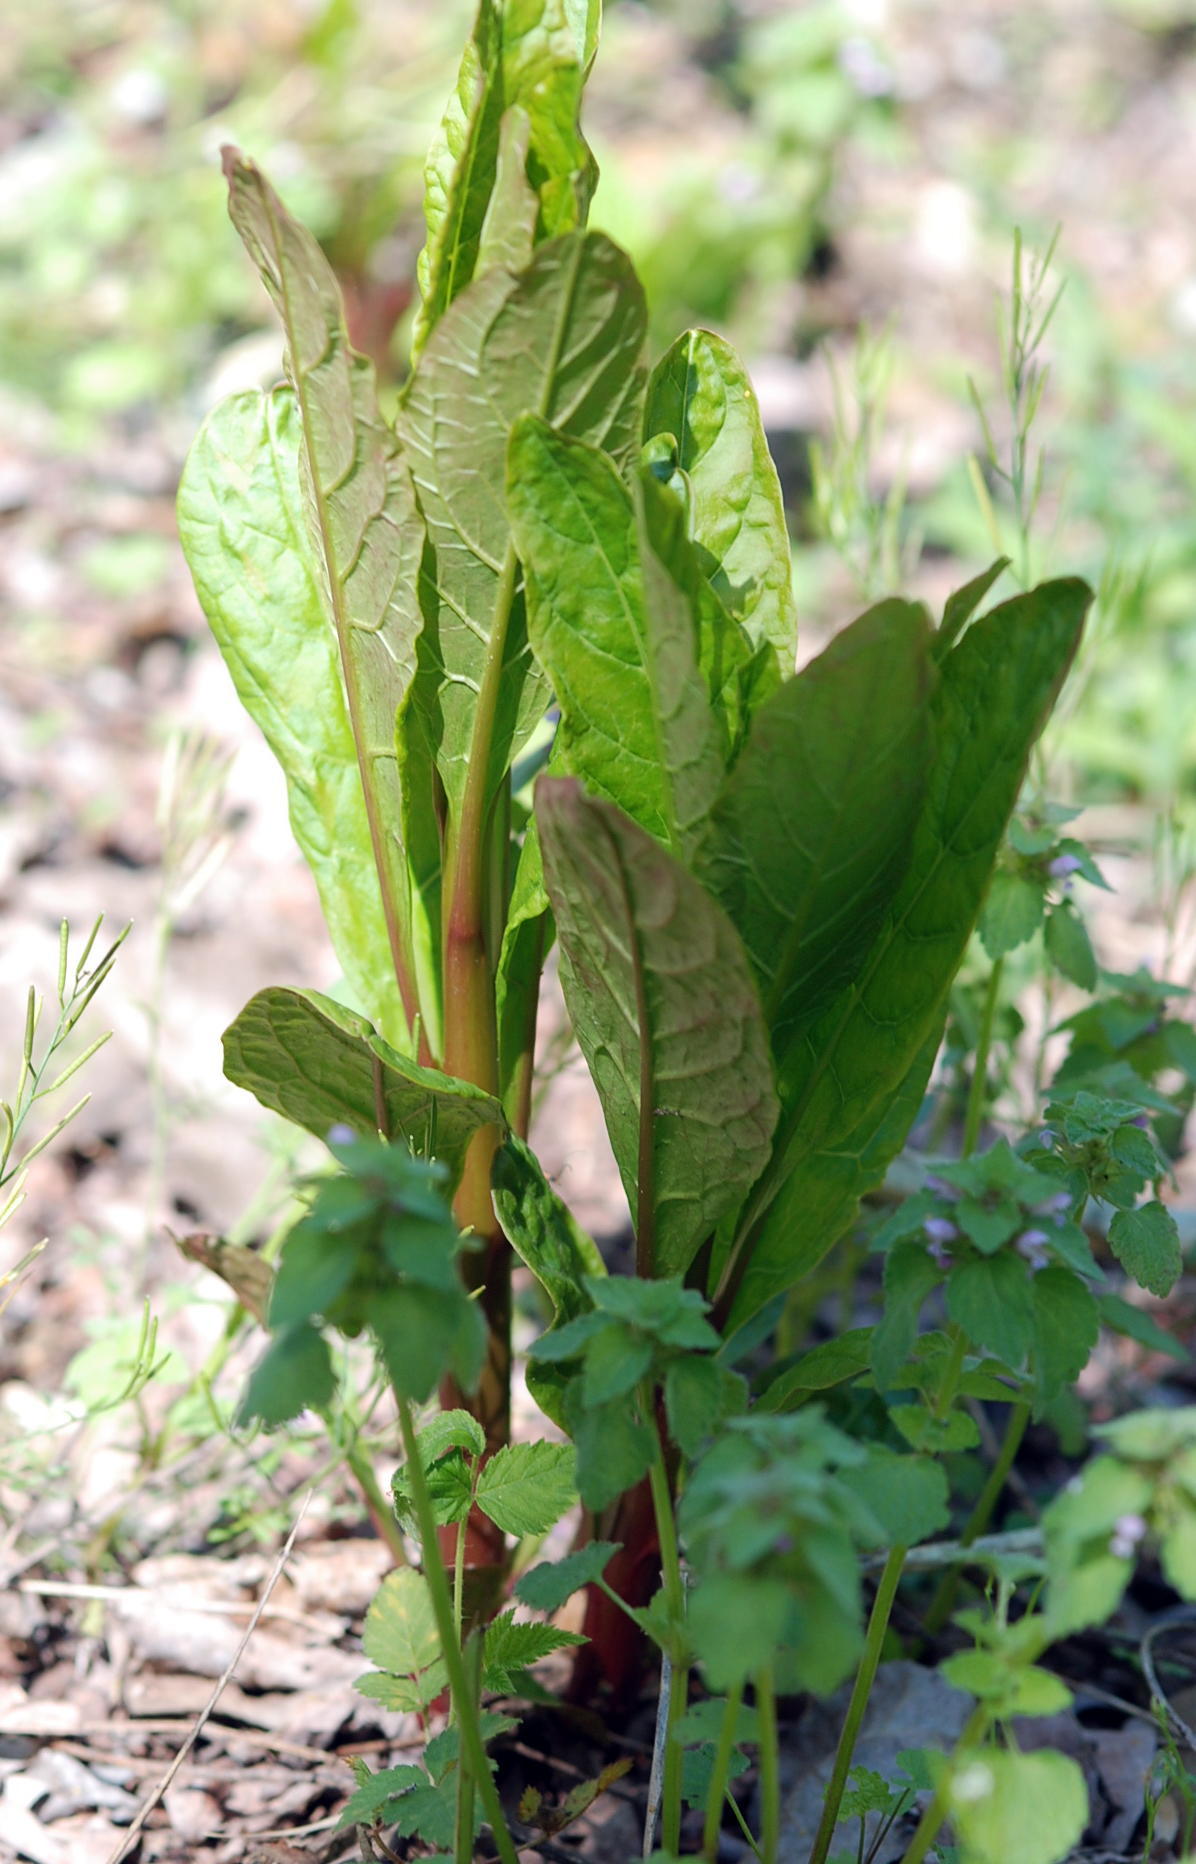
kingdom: Plantae
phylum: Tracheophyta
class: Magnoliopsida
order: Caryophyllales
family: Phytolaccaceae
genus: Phytolacca
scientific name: Phytolacca americana
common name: American pokeweed
